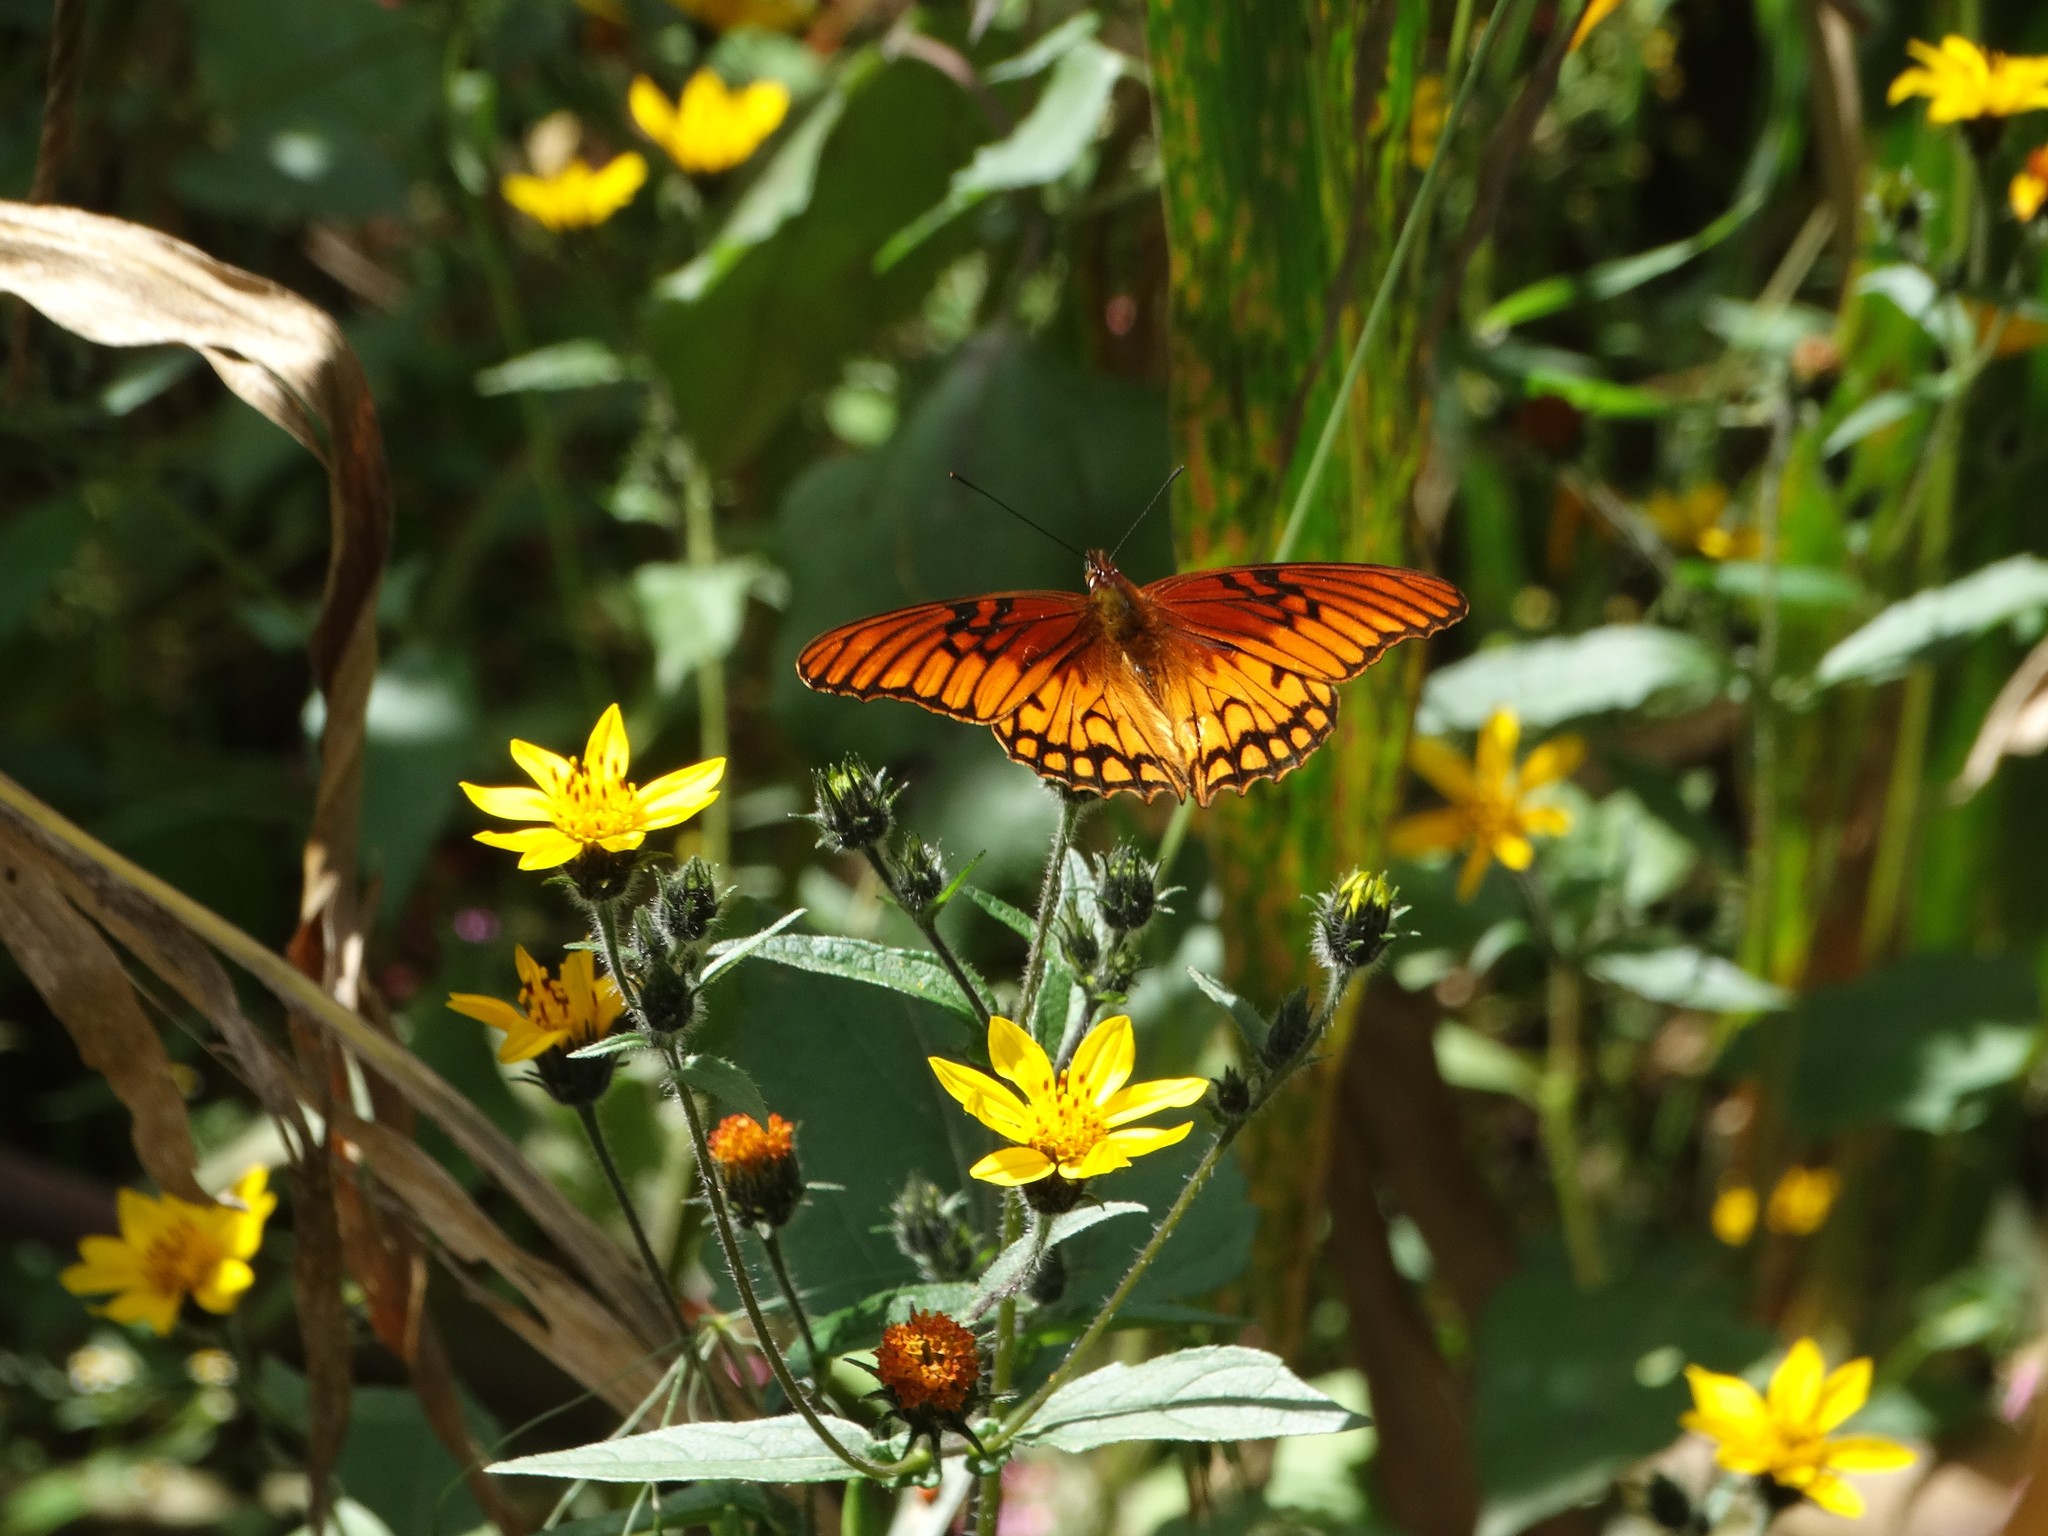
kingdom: Animalia
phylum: Arthropoda
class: Insecta
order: Lepidoptera
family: Nymphalidae
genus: Dione
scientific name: Dione moneta
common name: Mexican silverspot
